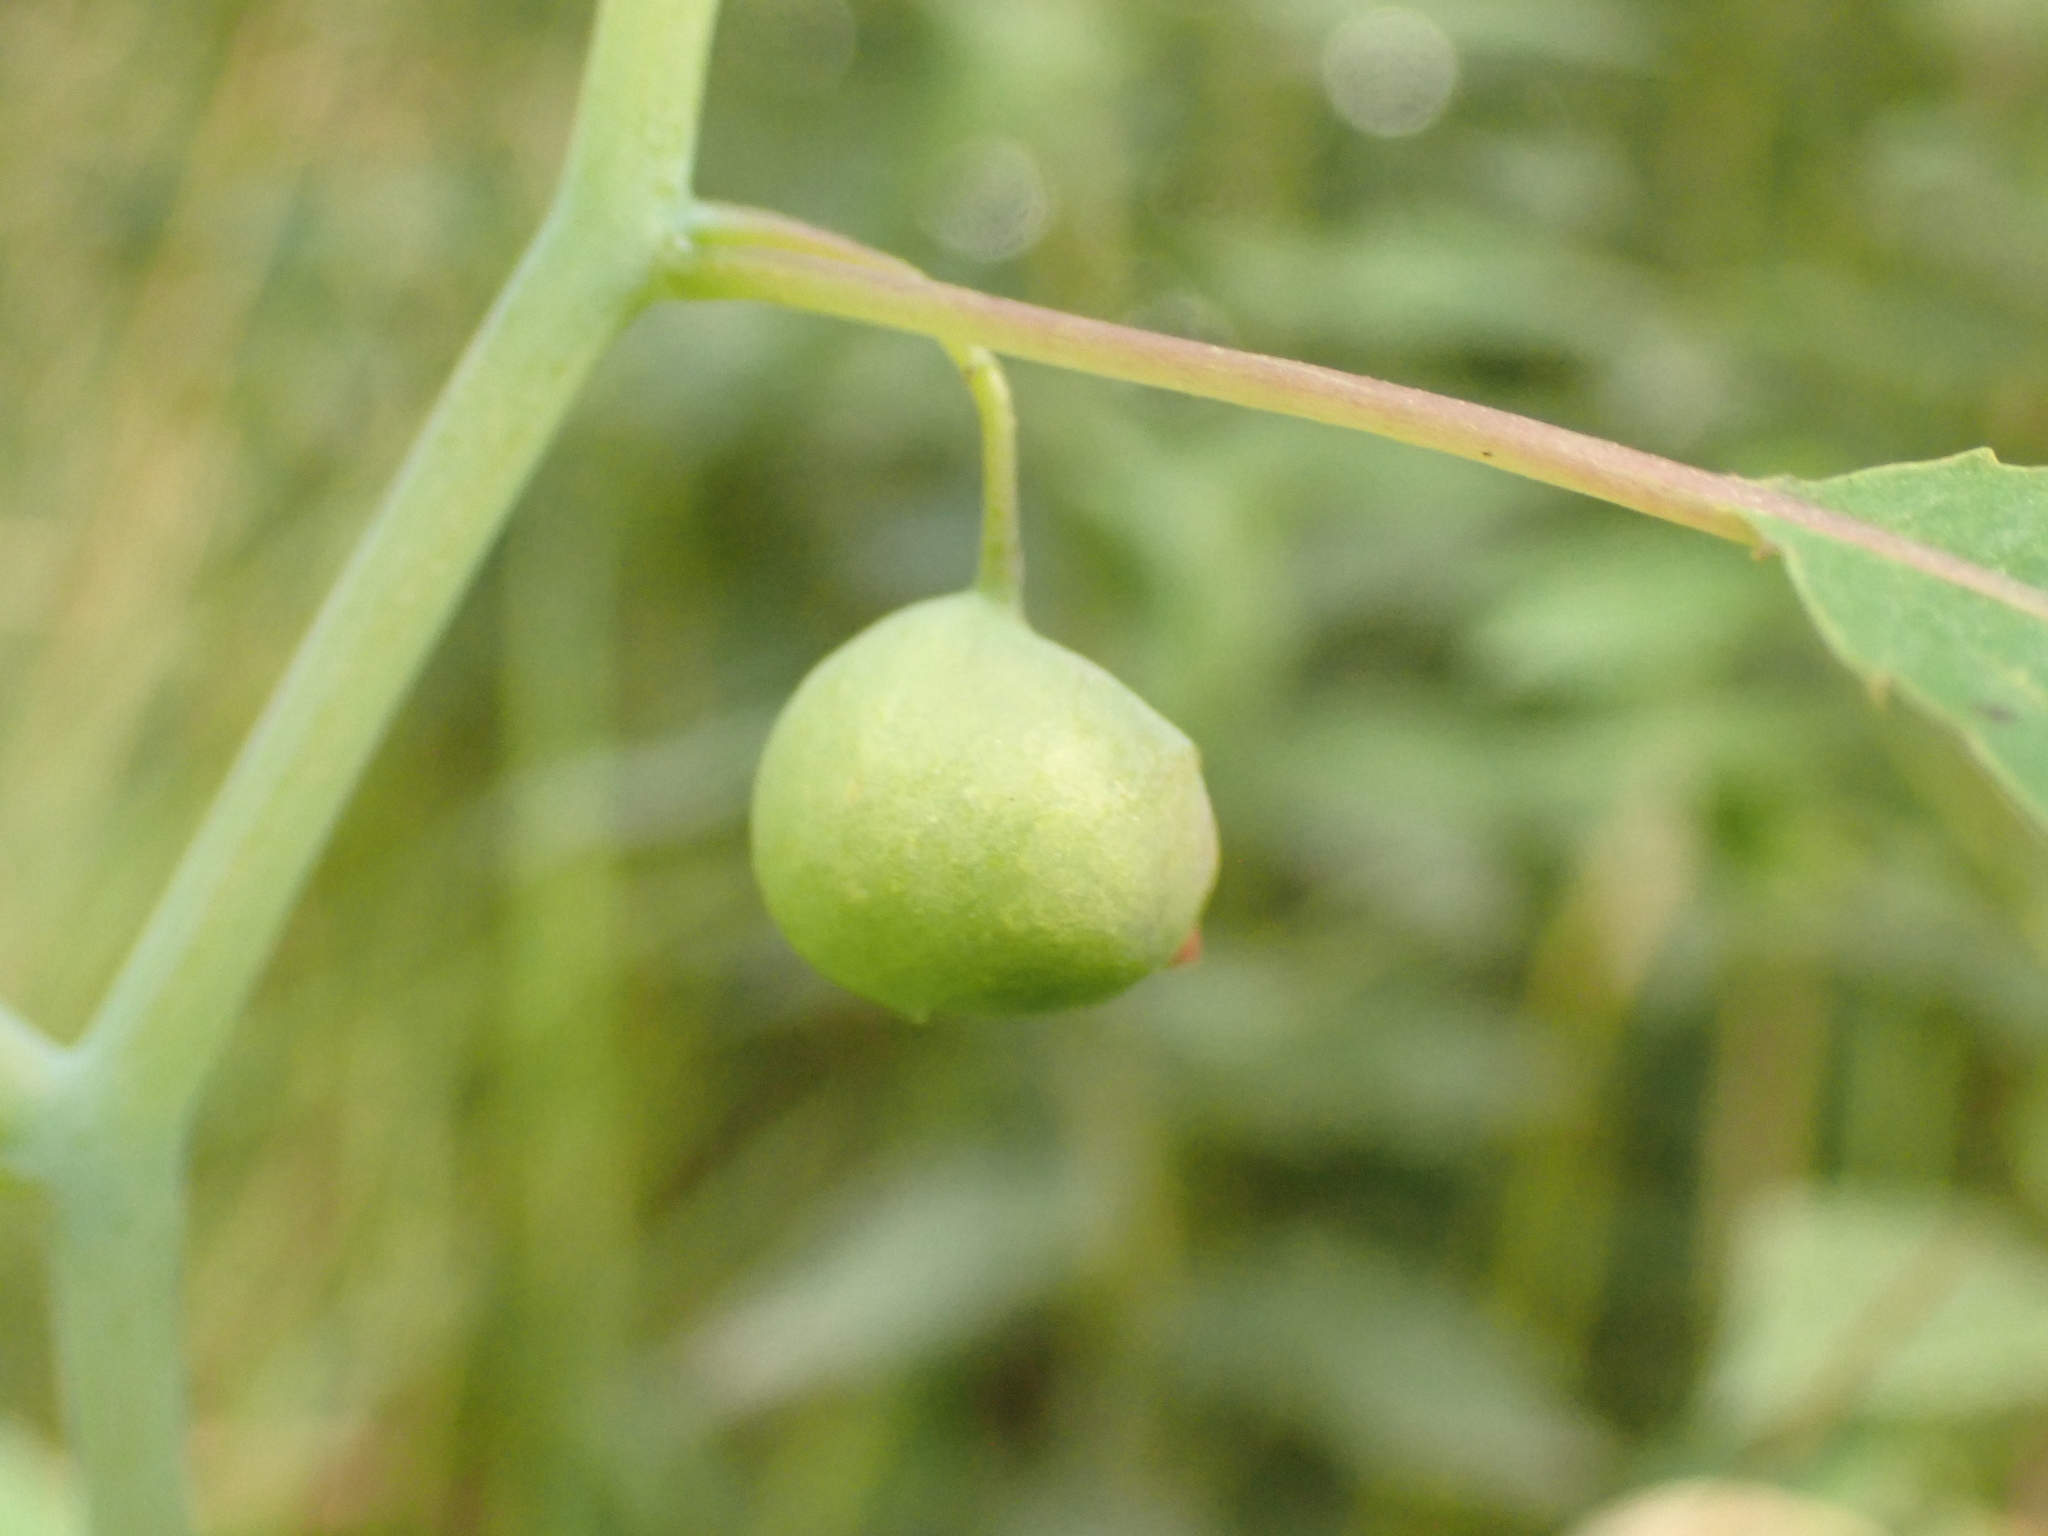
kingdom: Animalia
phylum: Arthropoda
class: Insecta
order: Diptera
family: Cecidomyiidae
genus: Schizomyia
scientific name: Schizomyia impatientis
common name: Jewelweed gall midge
